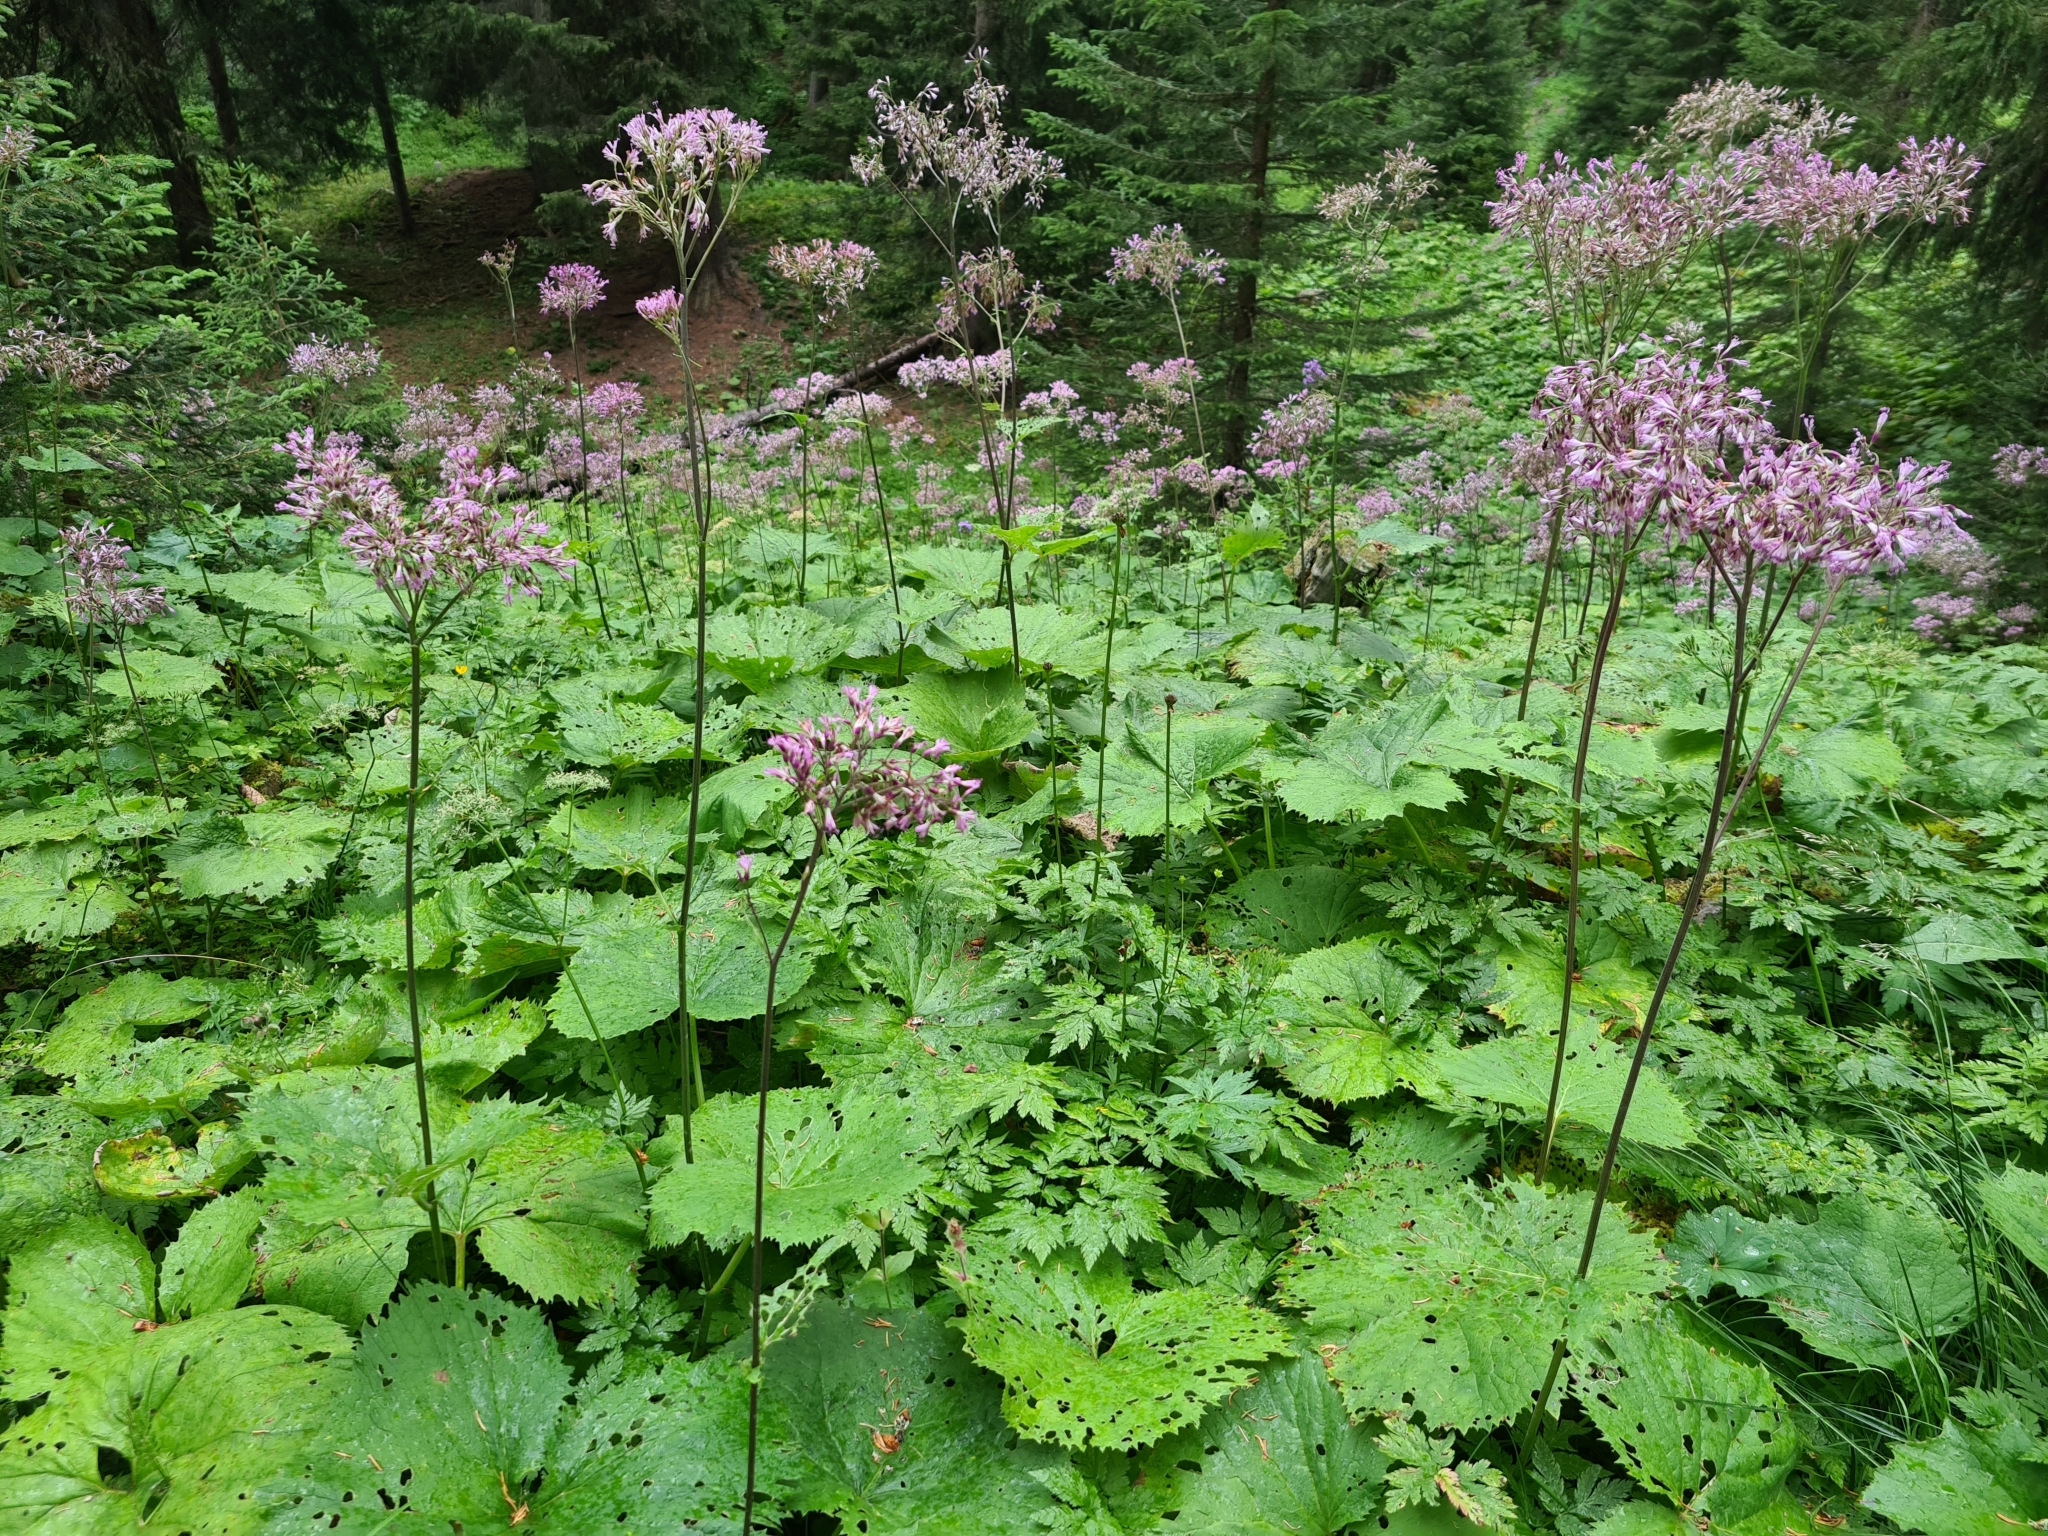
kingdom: Plantae
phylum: Tracheophyta
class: Magnoliopsida
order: Asterales
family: Asteraceae
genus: Adenostyles
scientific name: Adenostyles alliariae
